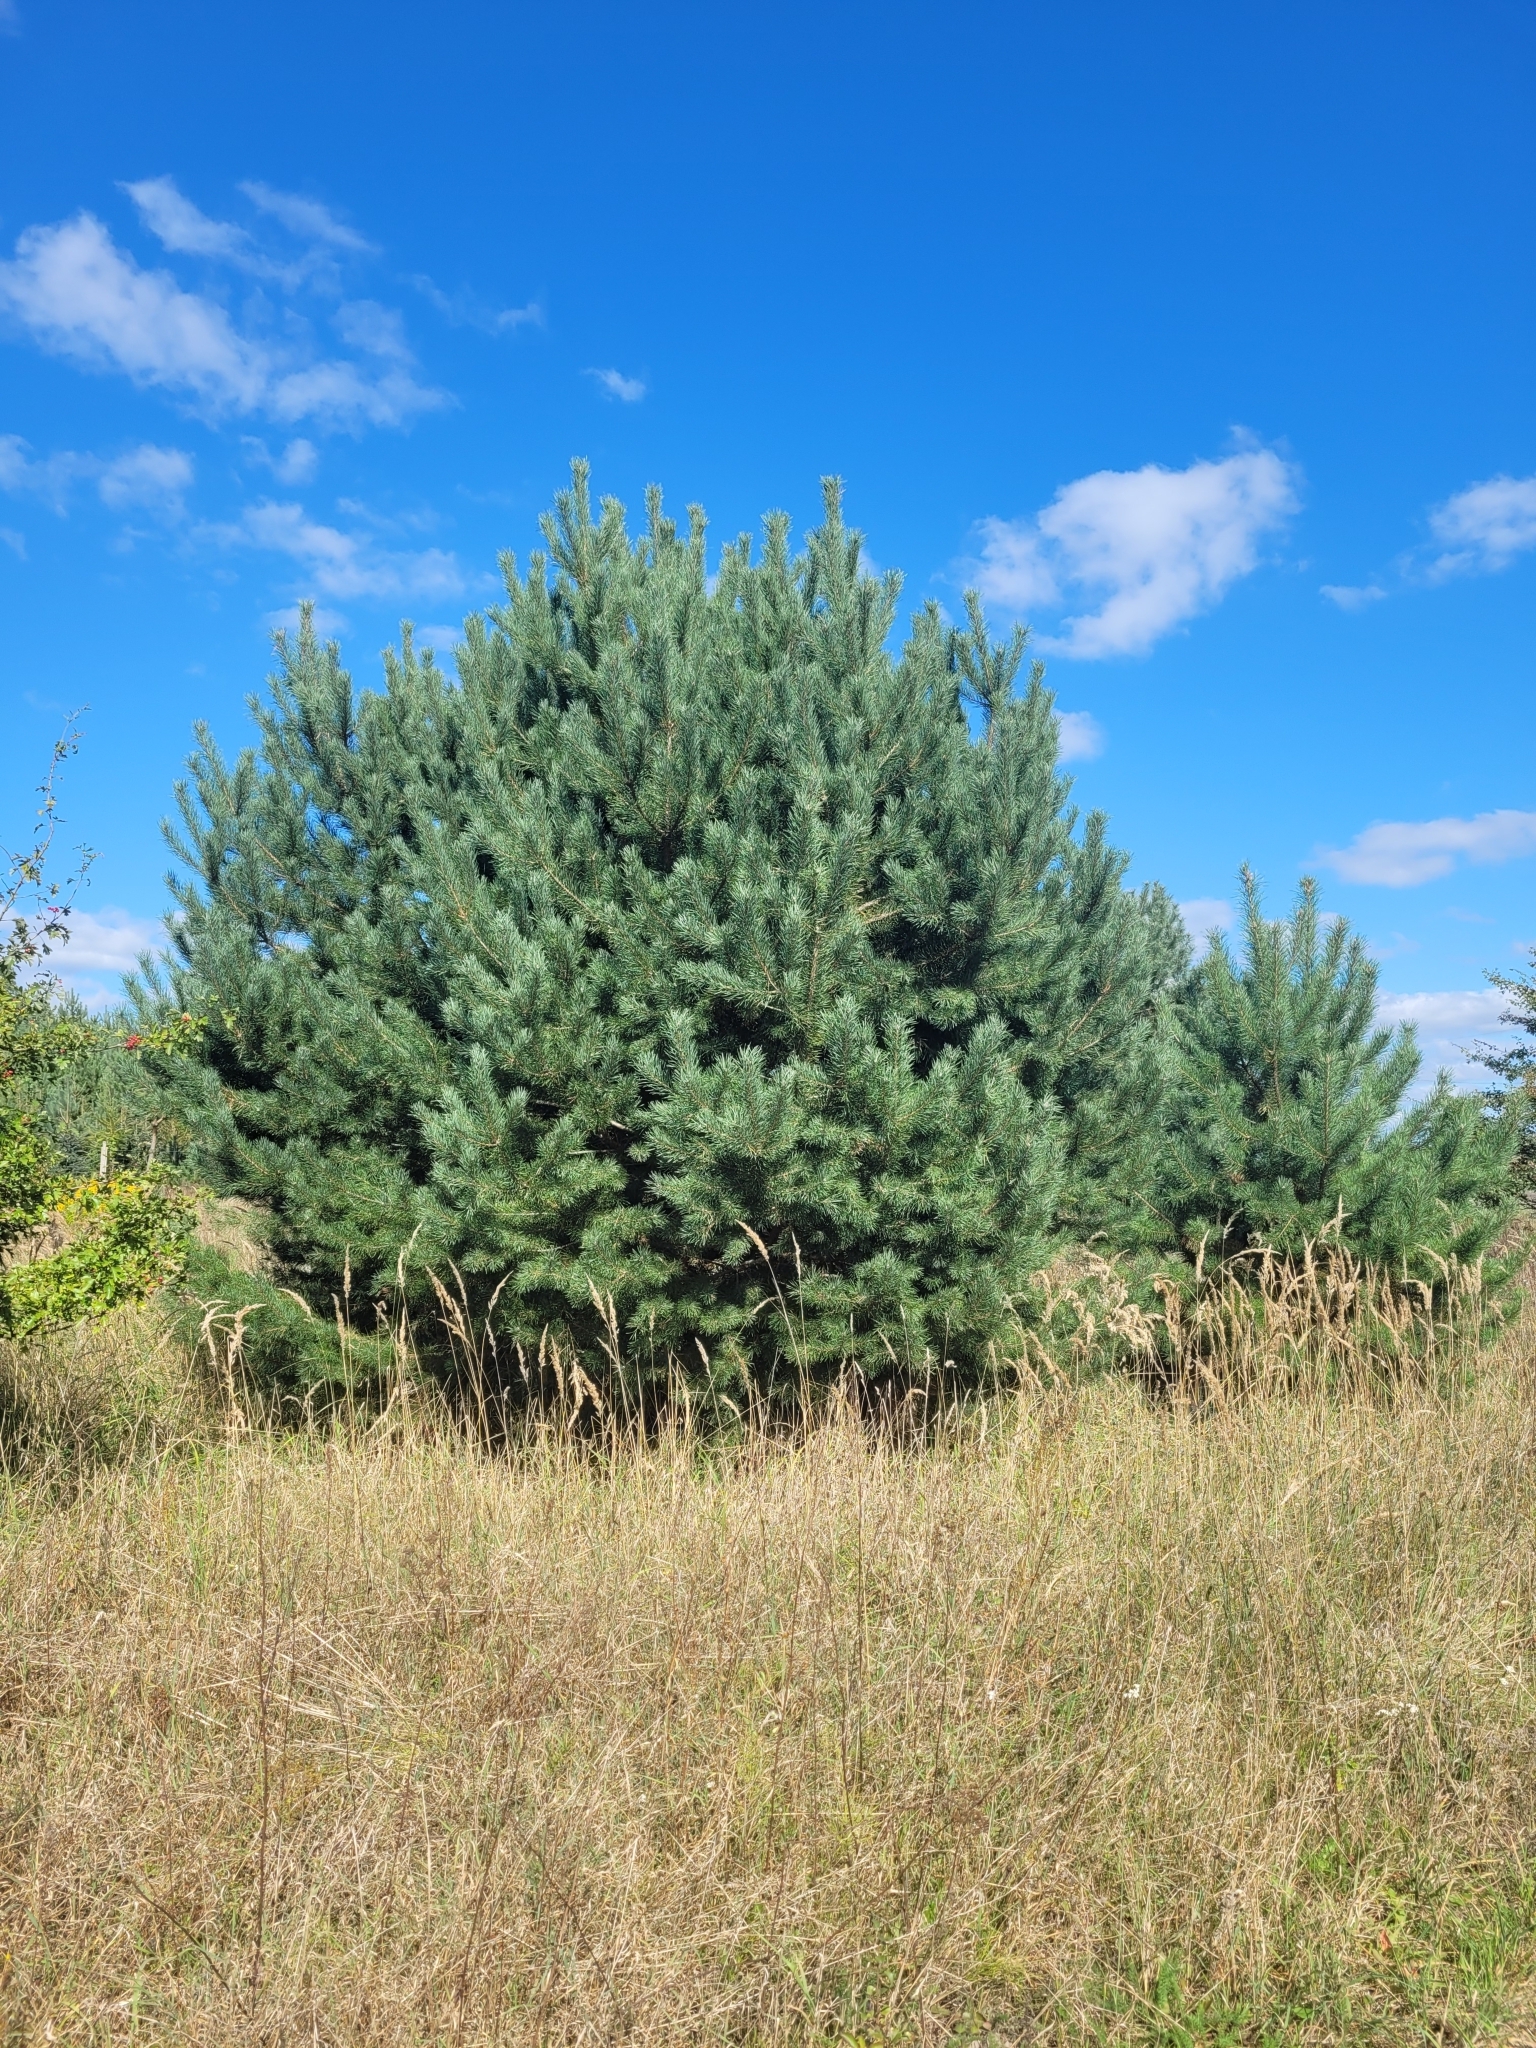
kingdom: Plantae
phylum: Tracheophyta
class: Pinopsida
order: Pinales
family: Pinaceae
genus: Pinus
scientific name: Pinus sylvestris
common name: Scots pine
